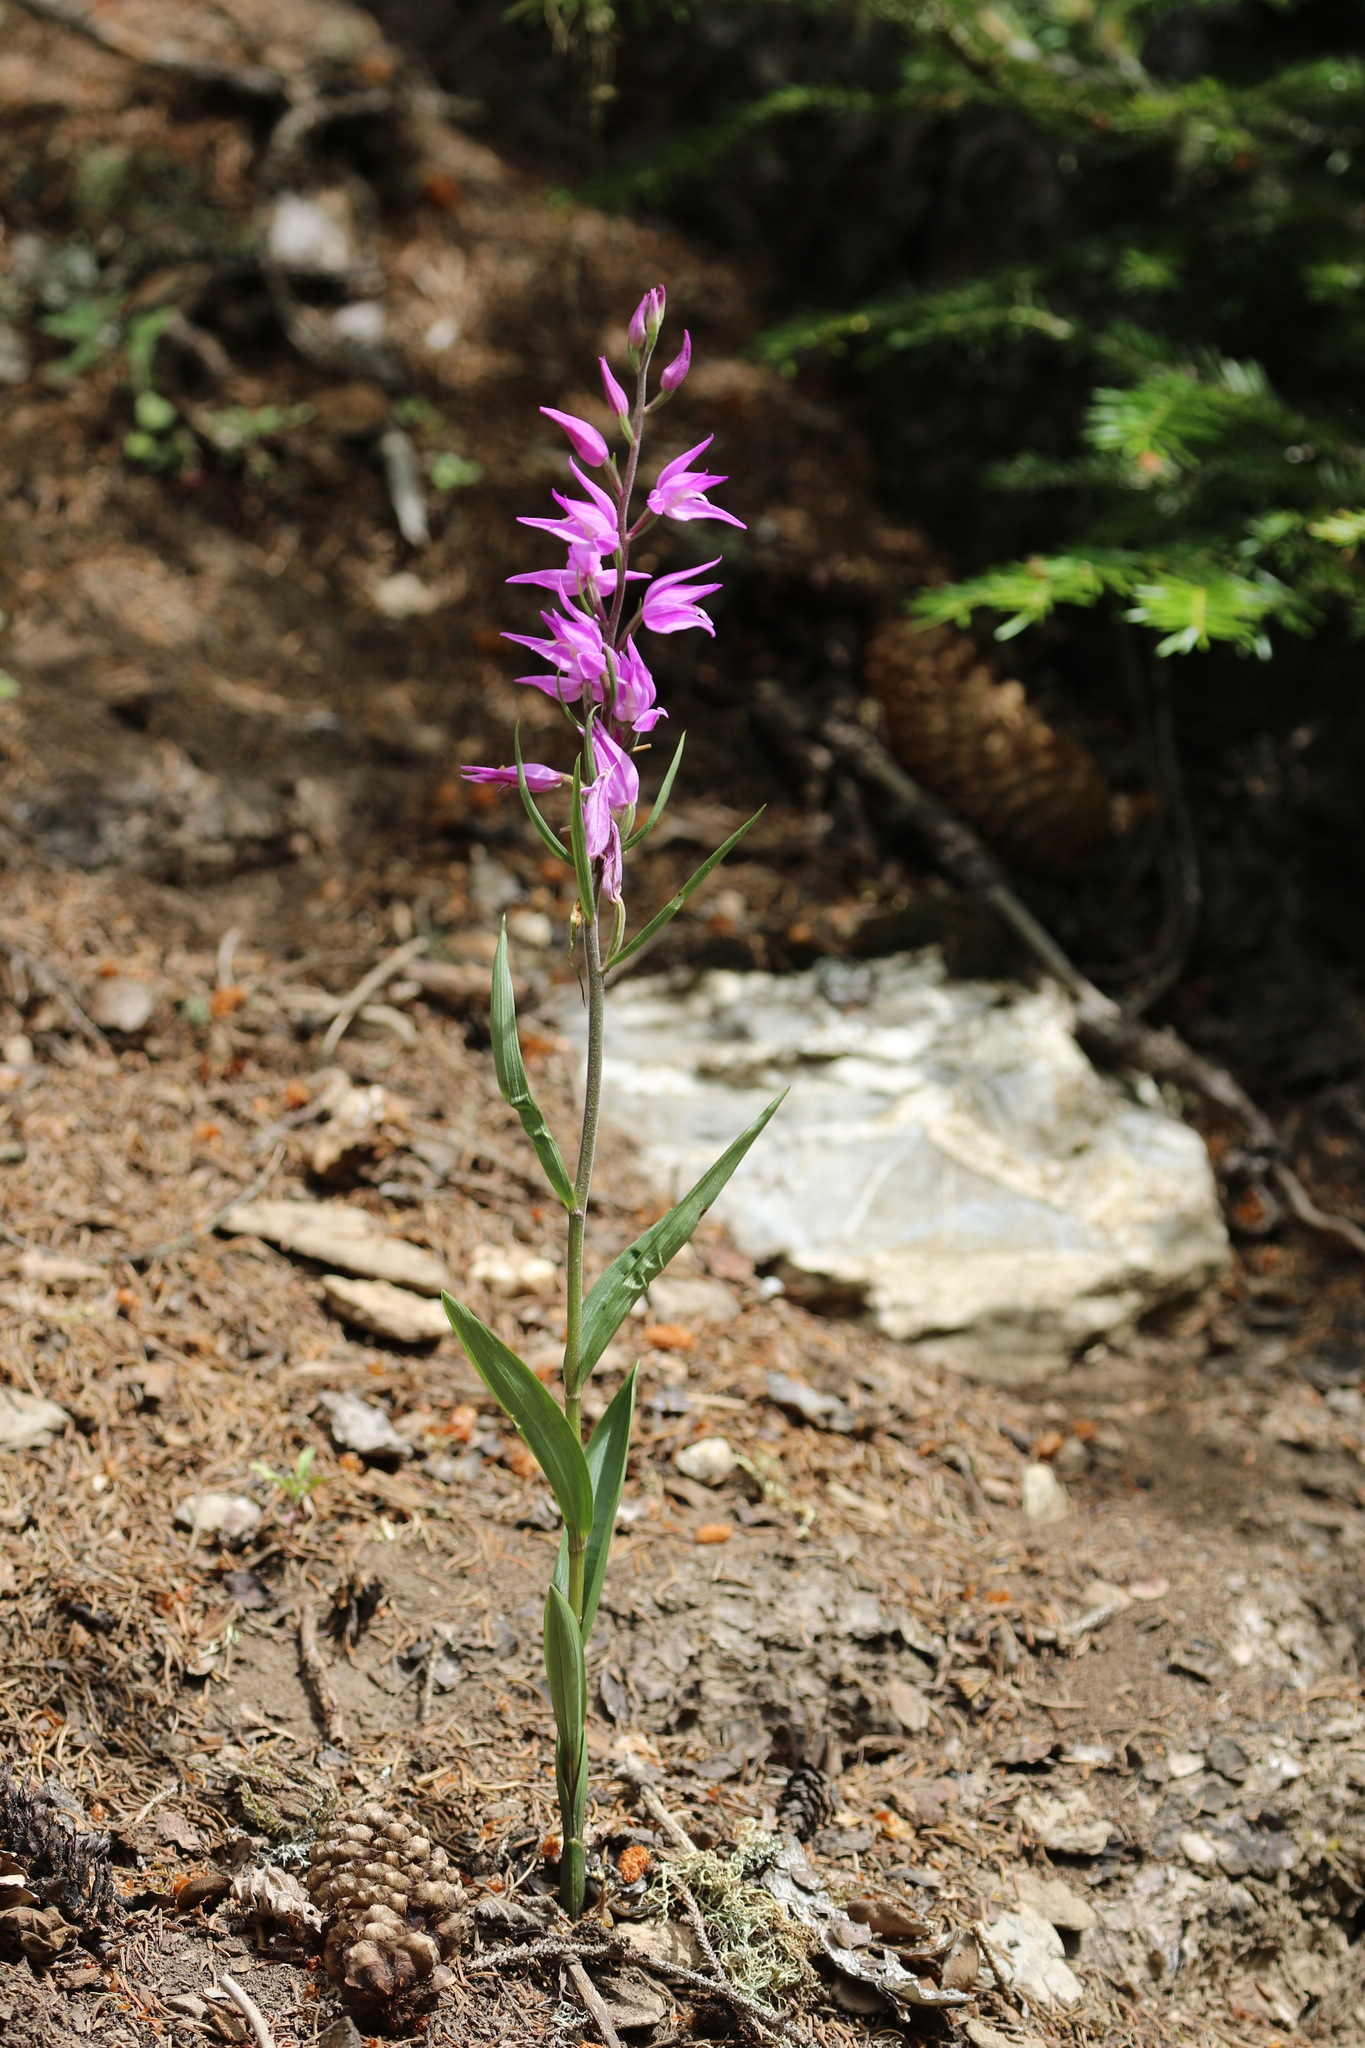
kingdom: Plantae
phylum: Tracheophyta
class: Liliopsida
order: Asparagales
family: Orchidaceae
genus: Cephalanthera
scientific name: Cephalanthera rubra
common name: Red helleborine
